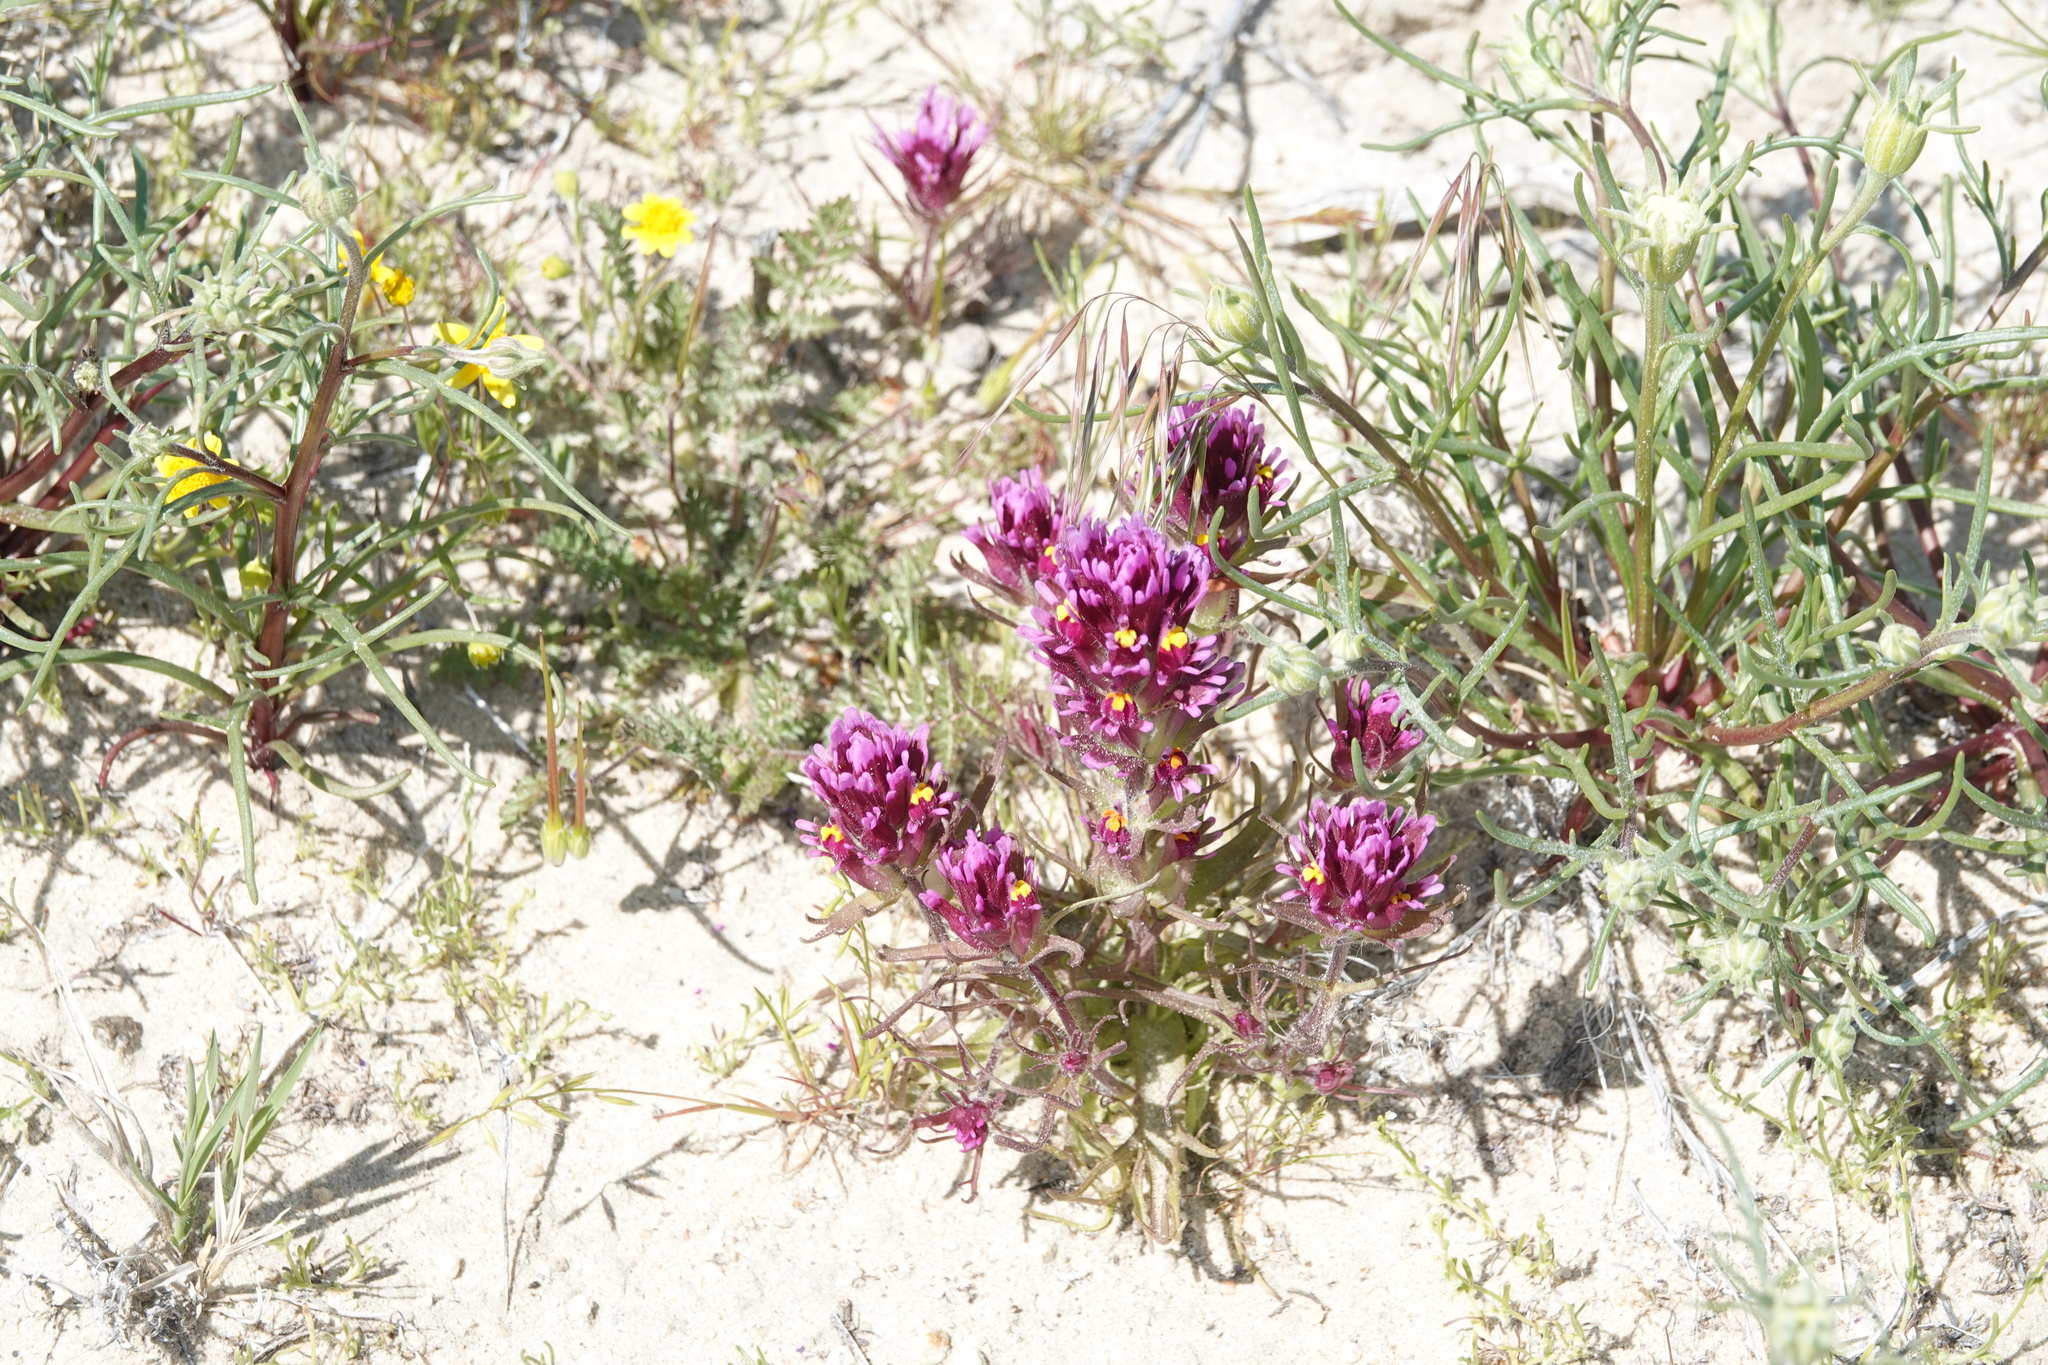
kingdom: Plantae
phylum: Tracheophyta
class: Magnoliopsida
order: Lamiales
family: Orobanchaceae
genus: Castilleja
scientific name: Castilleja exserta
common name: Purple owl-clover
